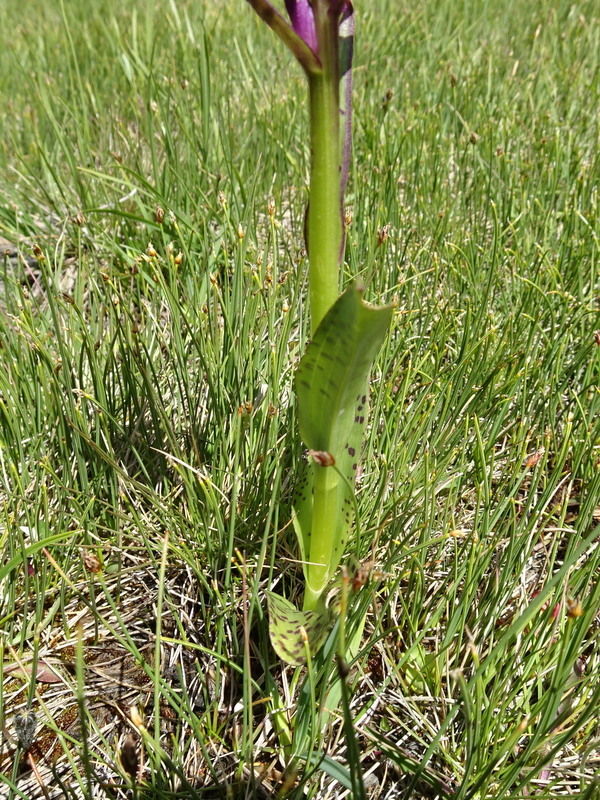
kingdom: Plantae
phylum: Tracheophyta
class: Liliopsida
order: Asparagales
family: Orchidaceae
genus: Dactylorhiza
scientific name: Dactylorhiza majalis
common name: Marsh orchid
